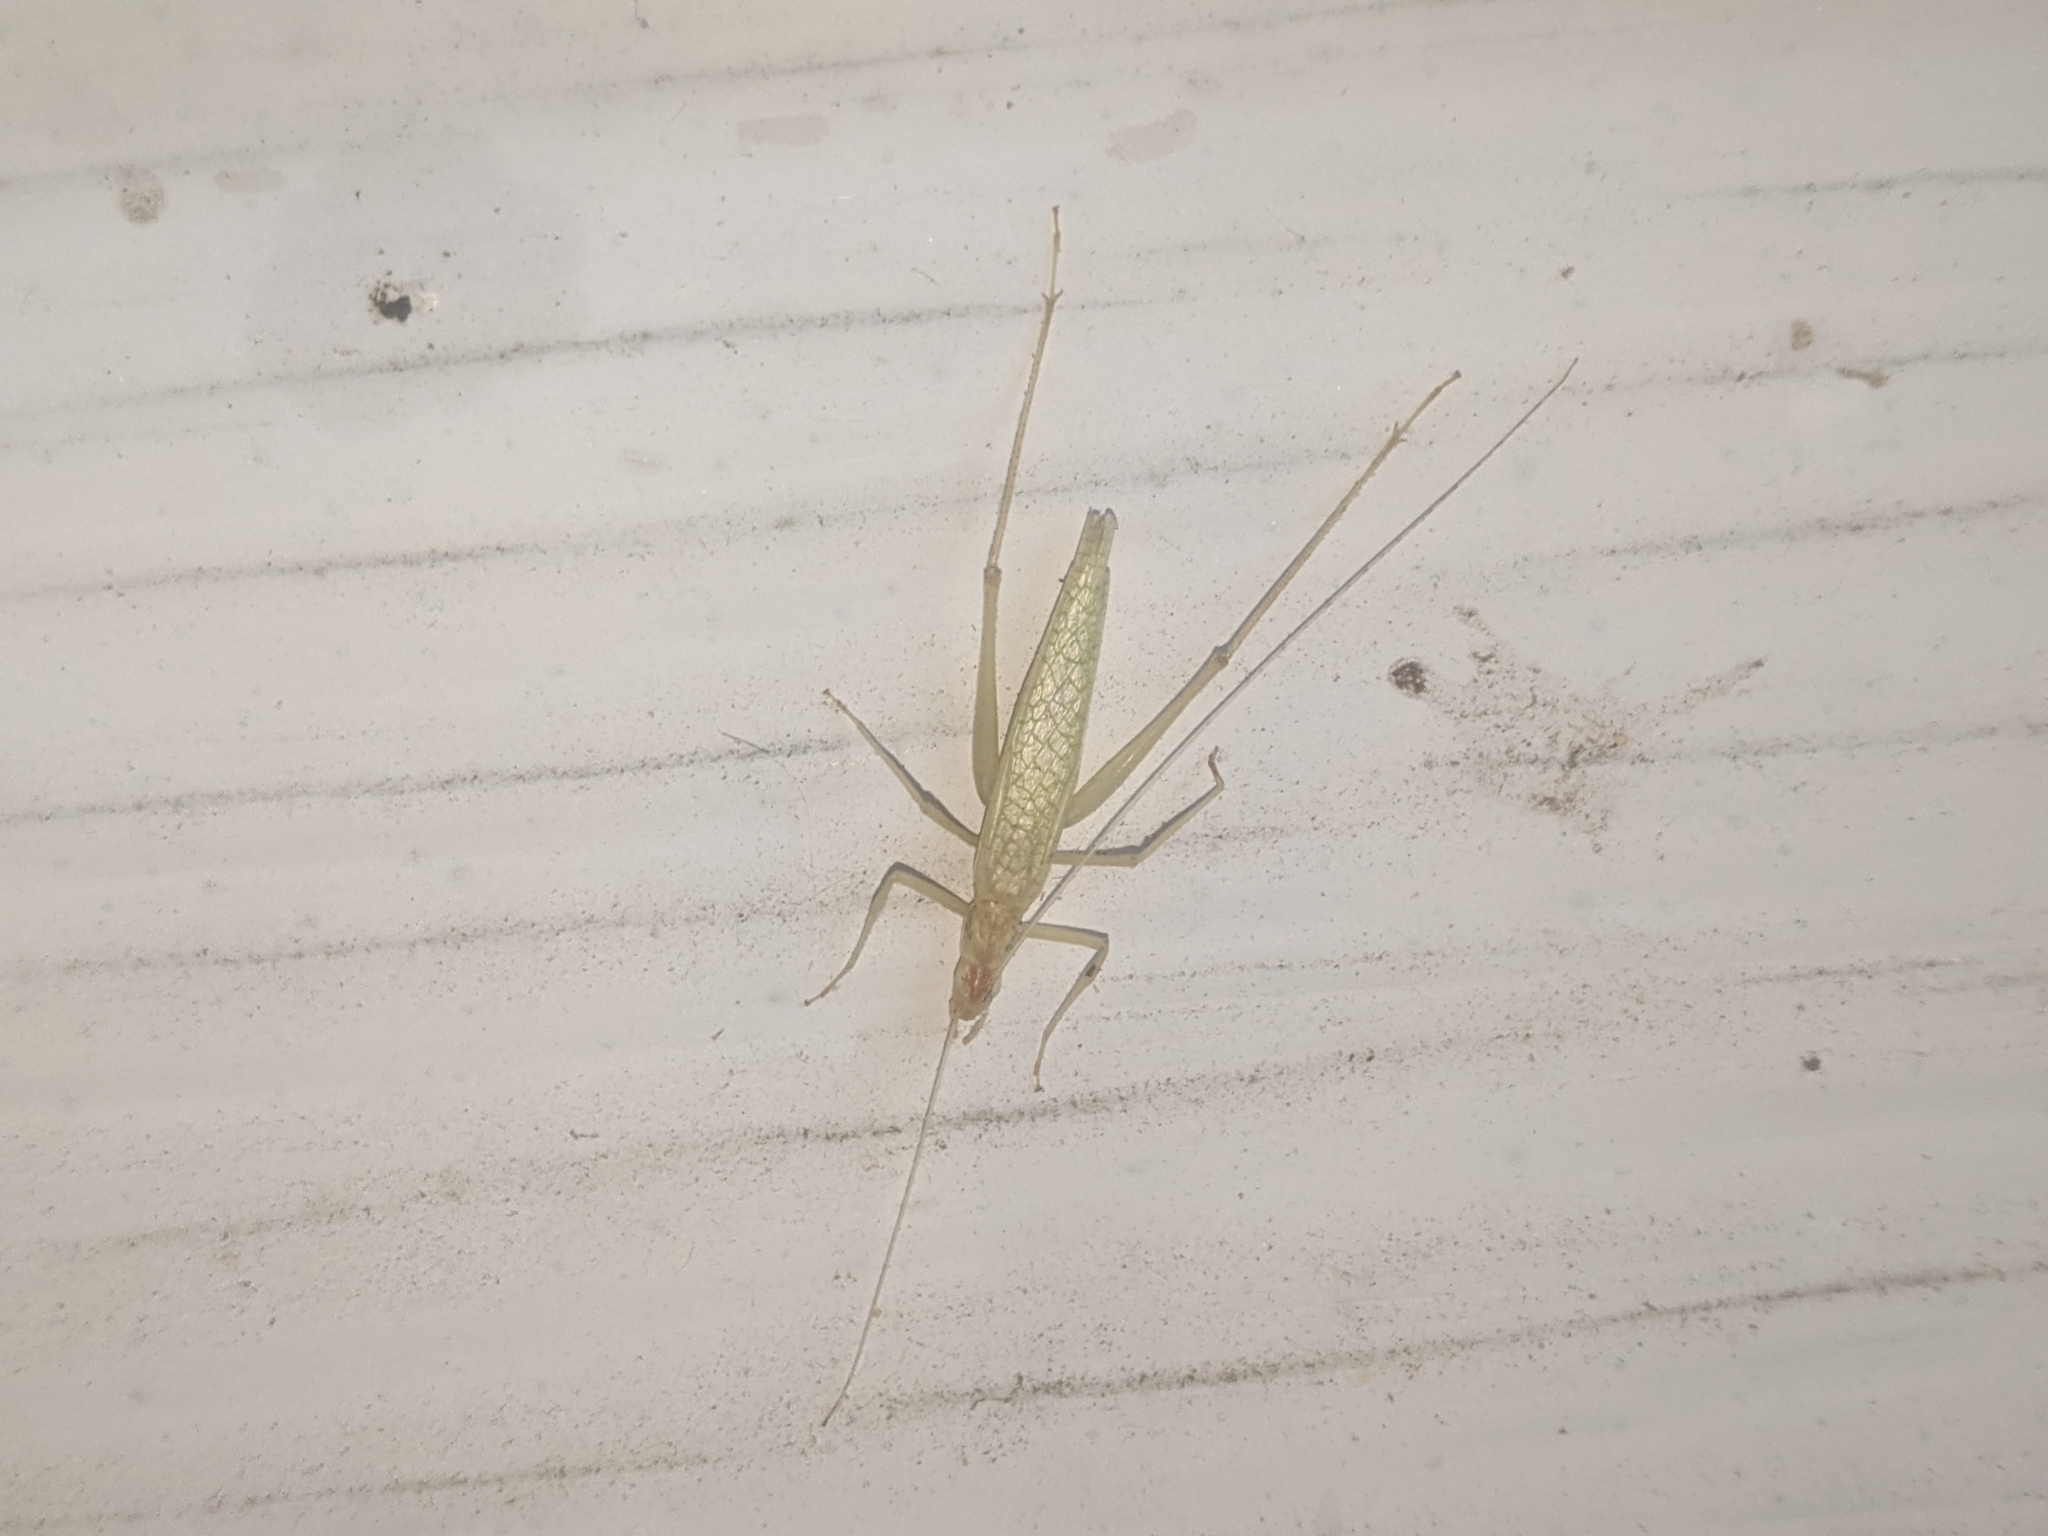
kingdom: Animalia
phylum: Arthropoda
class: Insecta
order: Orthoptera
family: Gryllidae
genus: Oecanthus
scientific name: Oecanthus niveus
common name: Narrow-winged tree cricket
